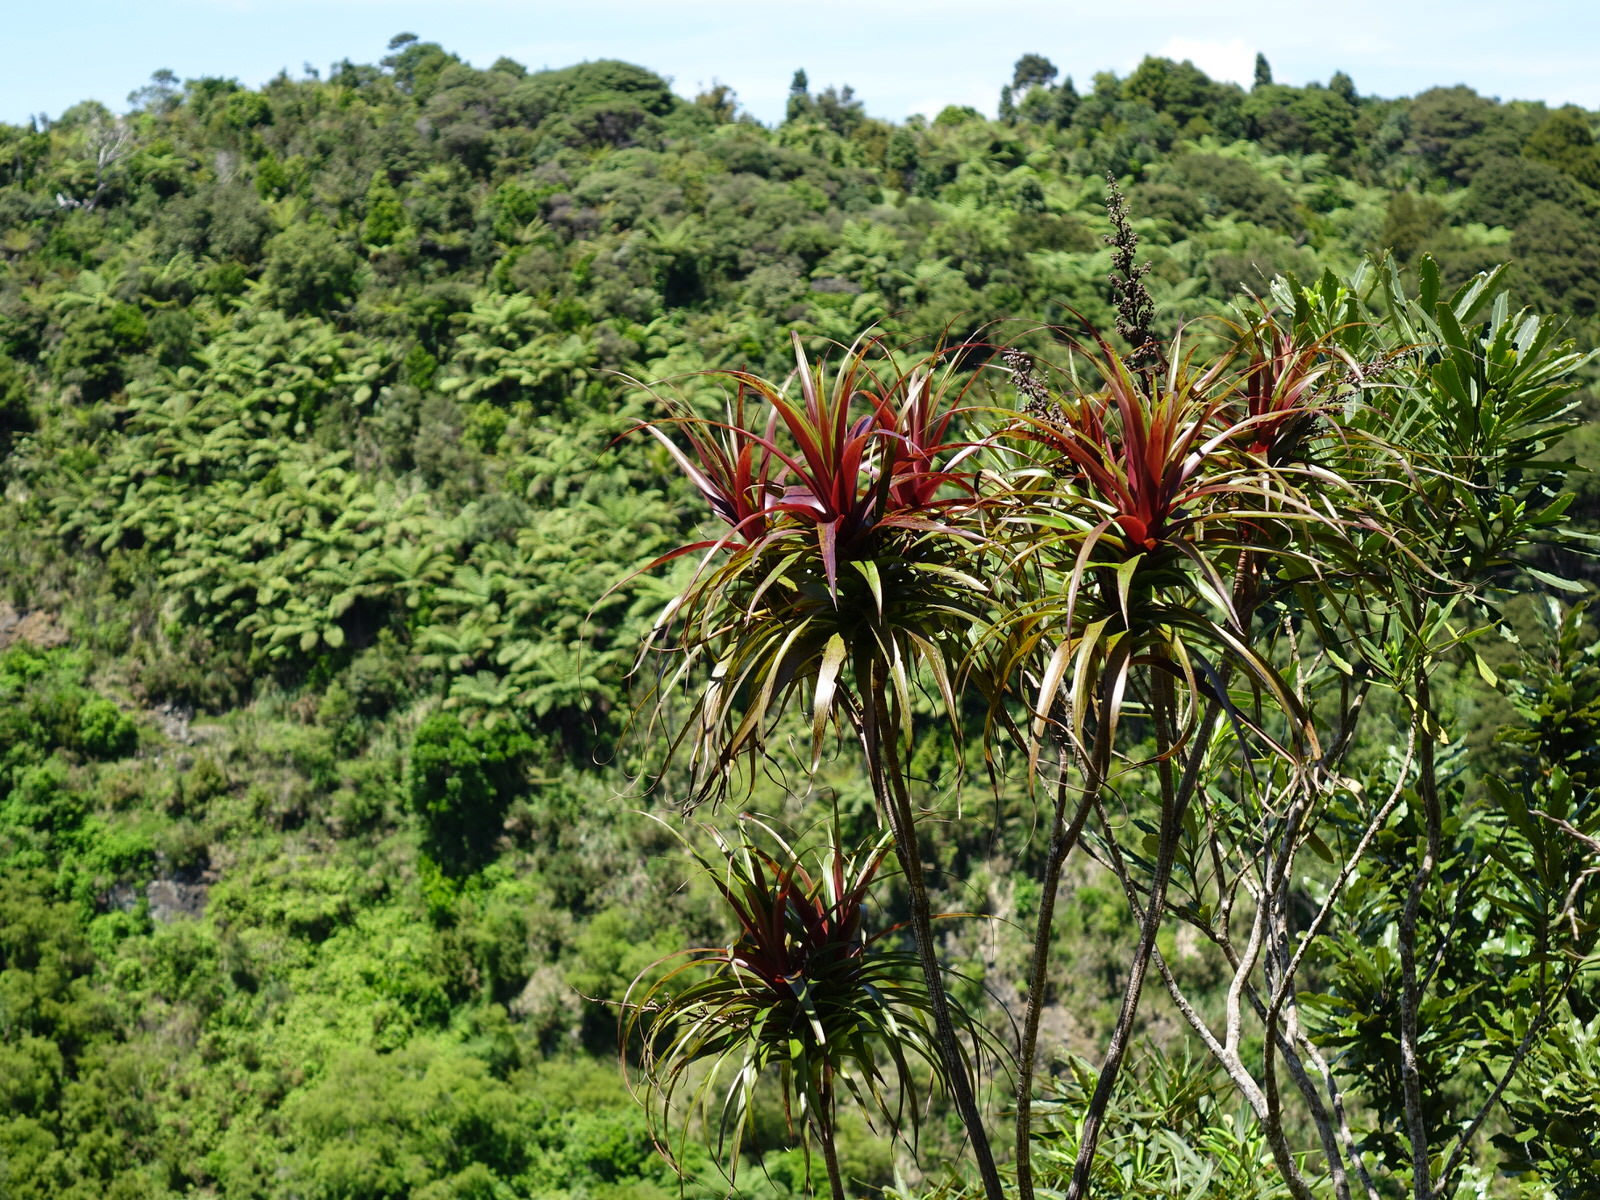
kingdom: Plantae
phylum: Tracheophyta
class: Magnoliopsida
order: Ericales
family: Ericaceae
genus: Dracophyllum
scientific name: Dracophyllum latifolium
